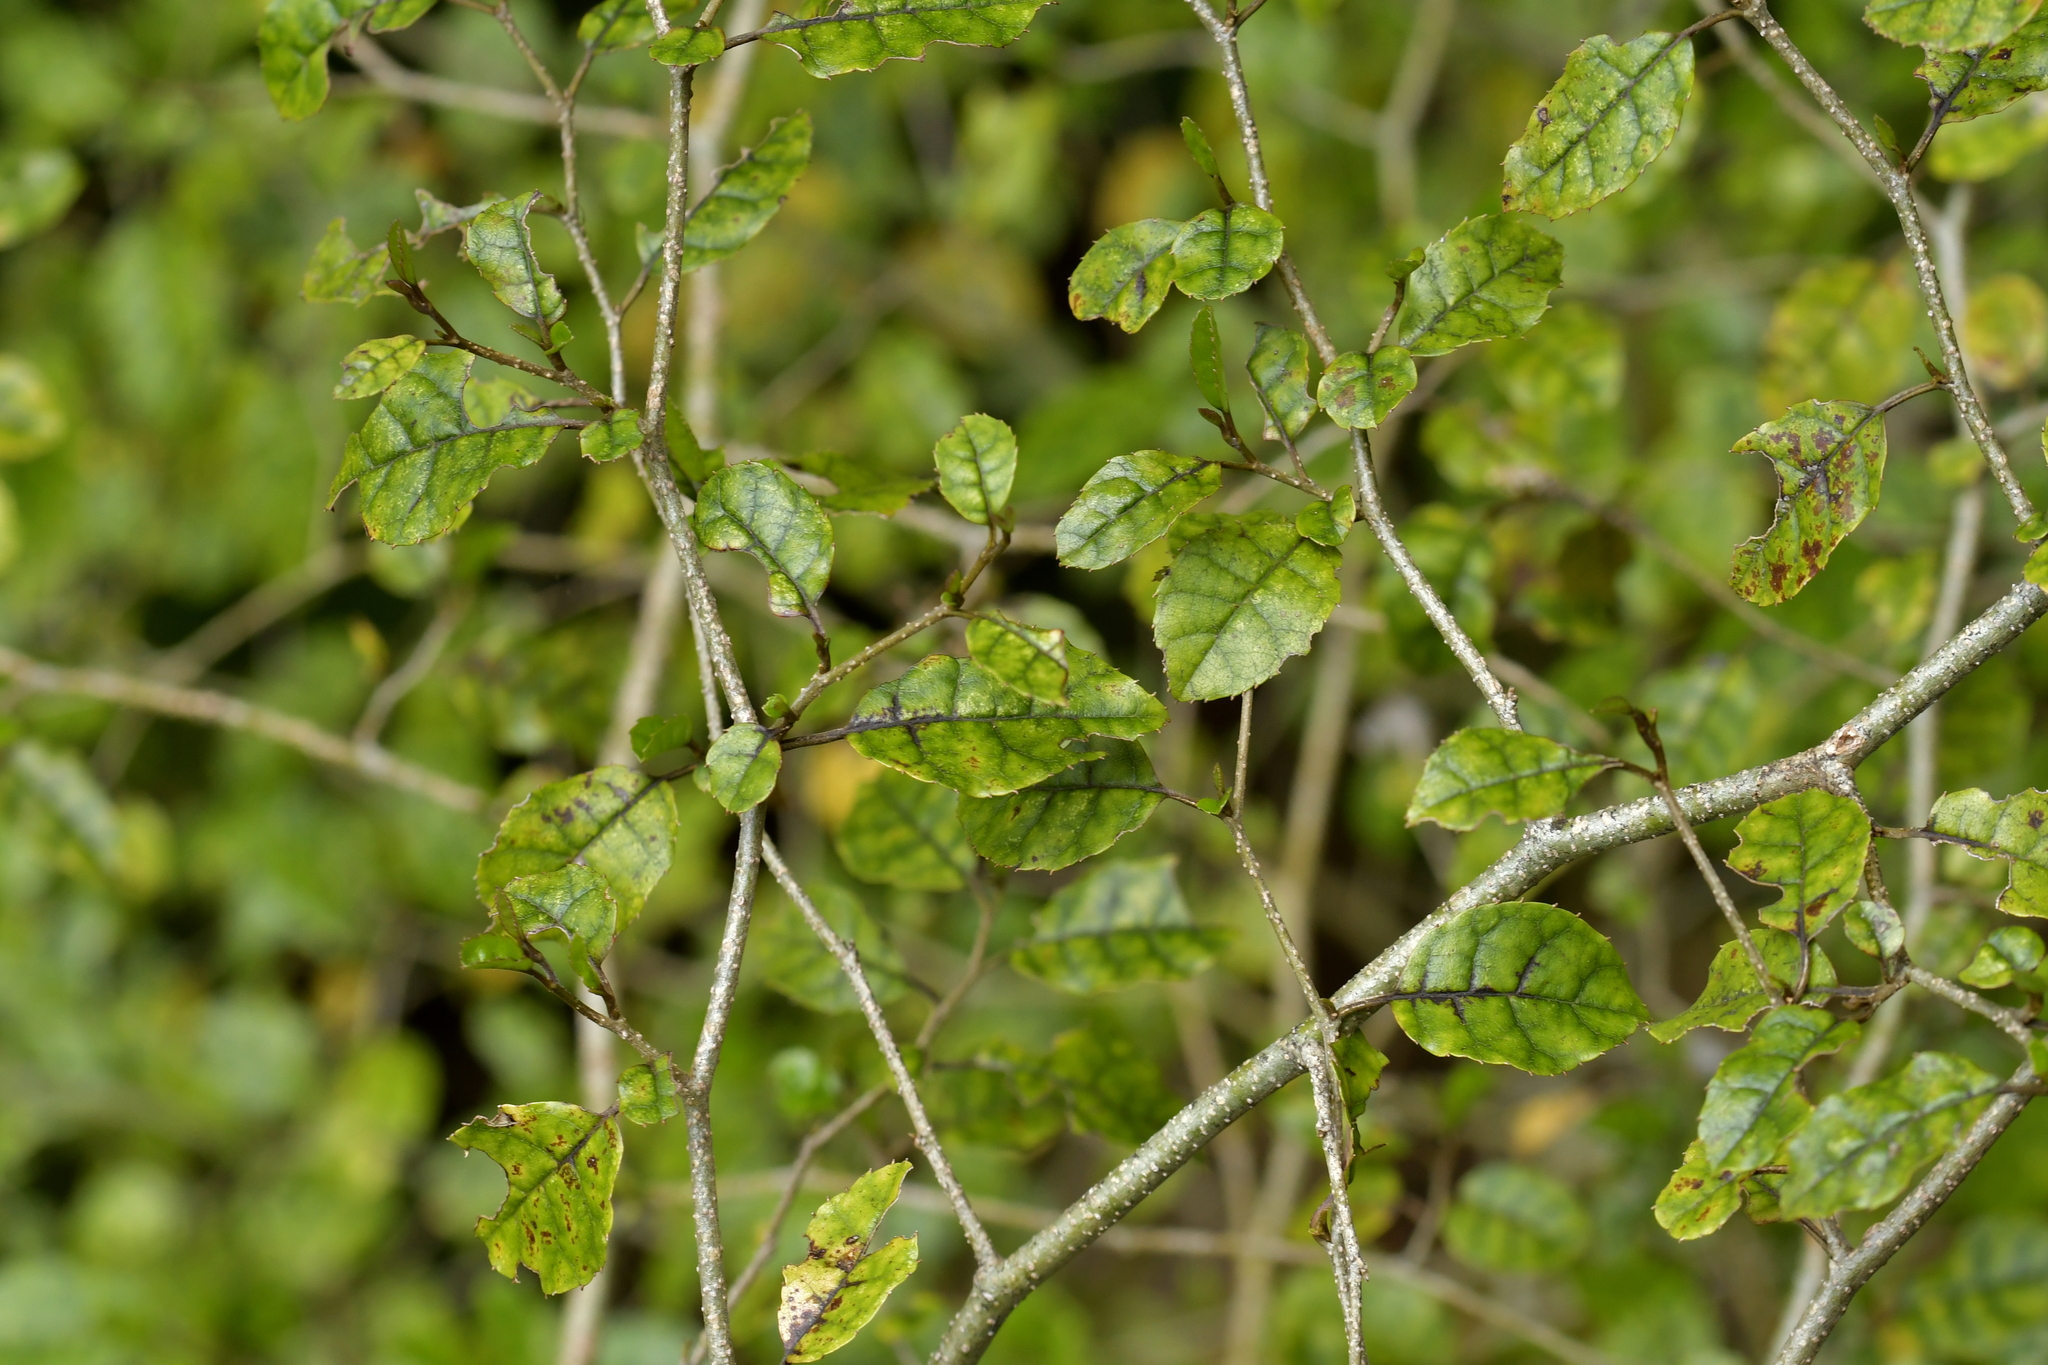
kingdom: Plantae
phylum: Tracheophyta
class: Magnoliopsida
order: Asterales
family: Rousseaceae
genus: Carpodetus
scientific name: Carpodetus serratus
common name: White mapau
